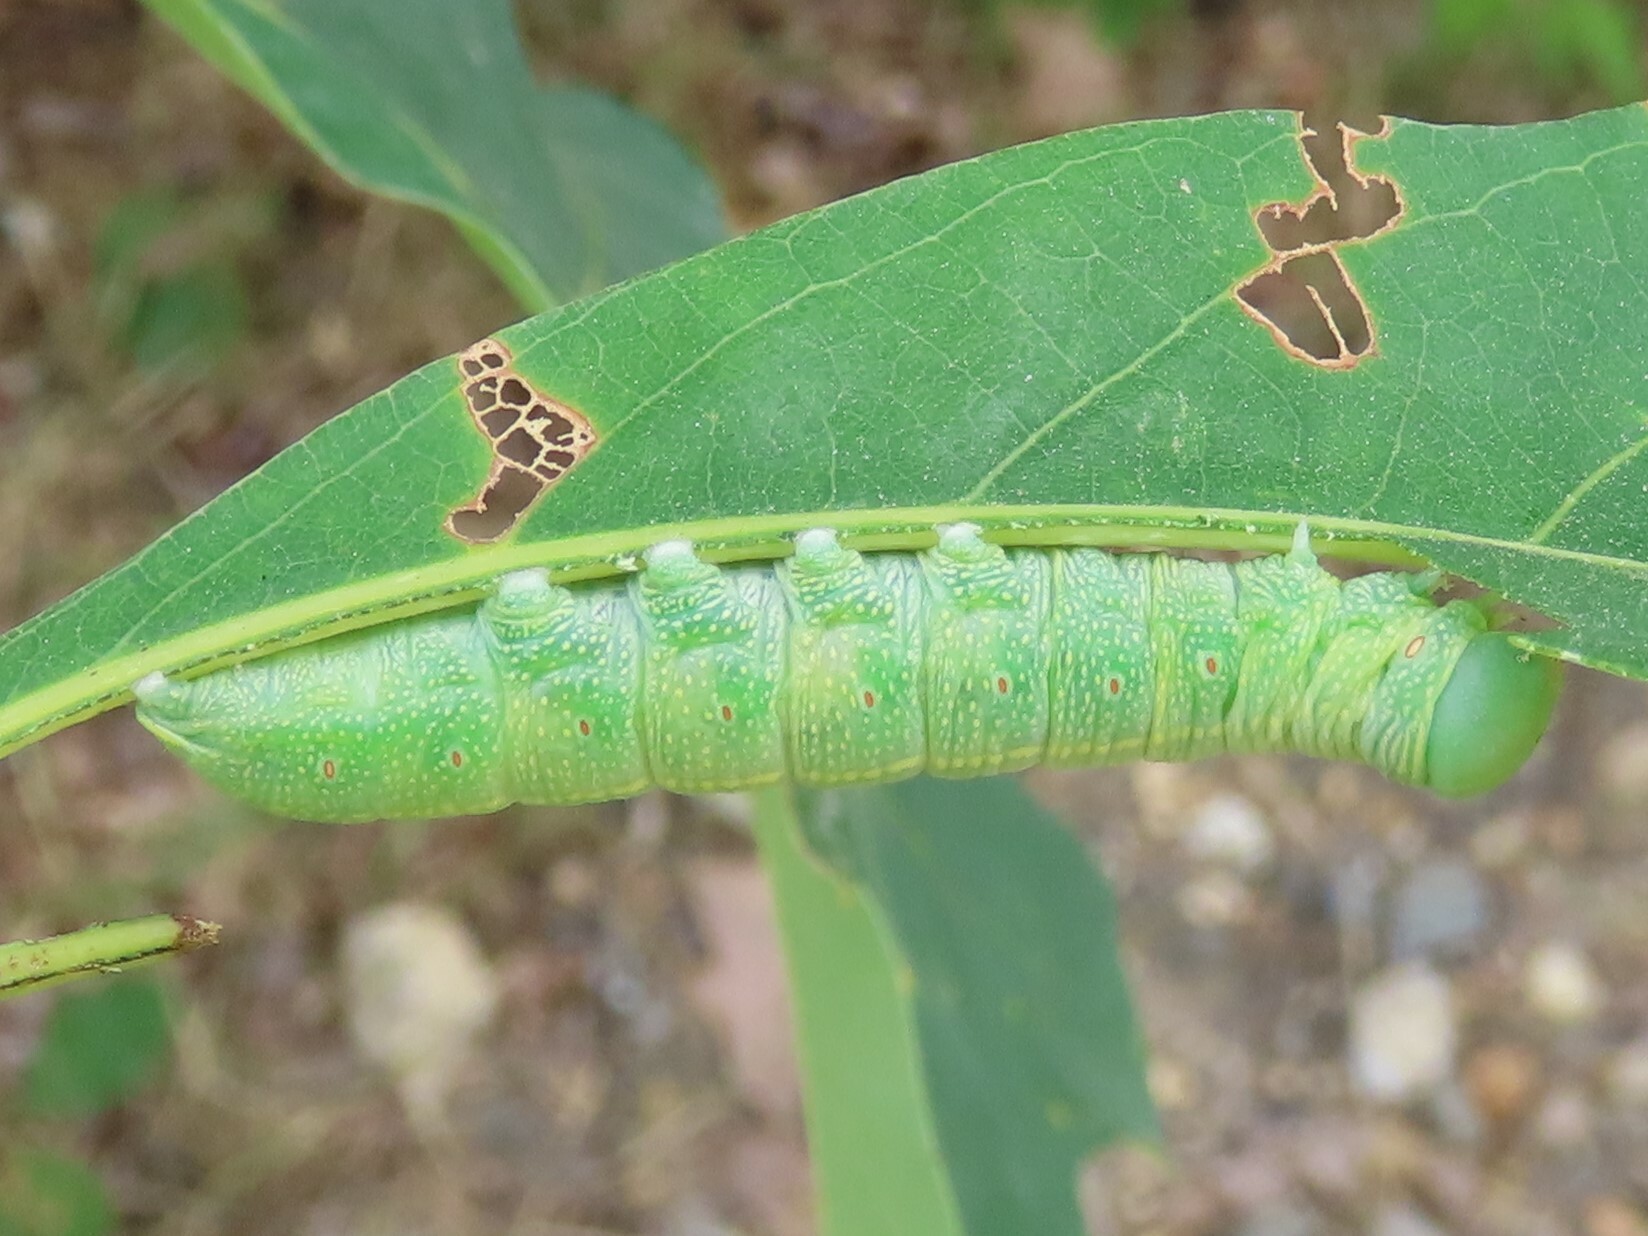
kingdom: Animalia
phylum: Arthropoda
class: Insecta
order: Lepidoptera
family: Notodontidae
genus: Nadata
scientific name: Nadata gibbosa
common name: White-dotted prominent
